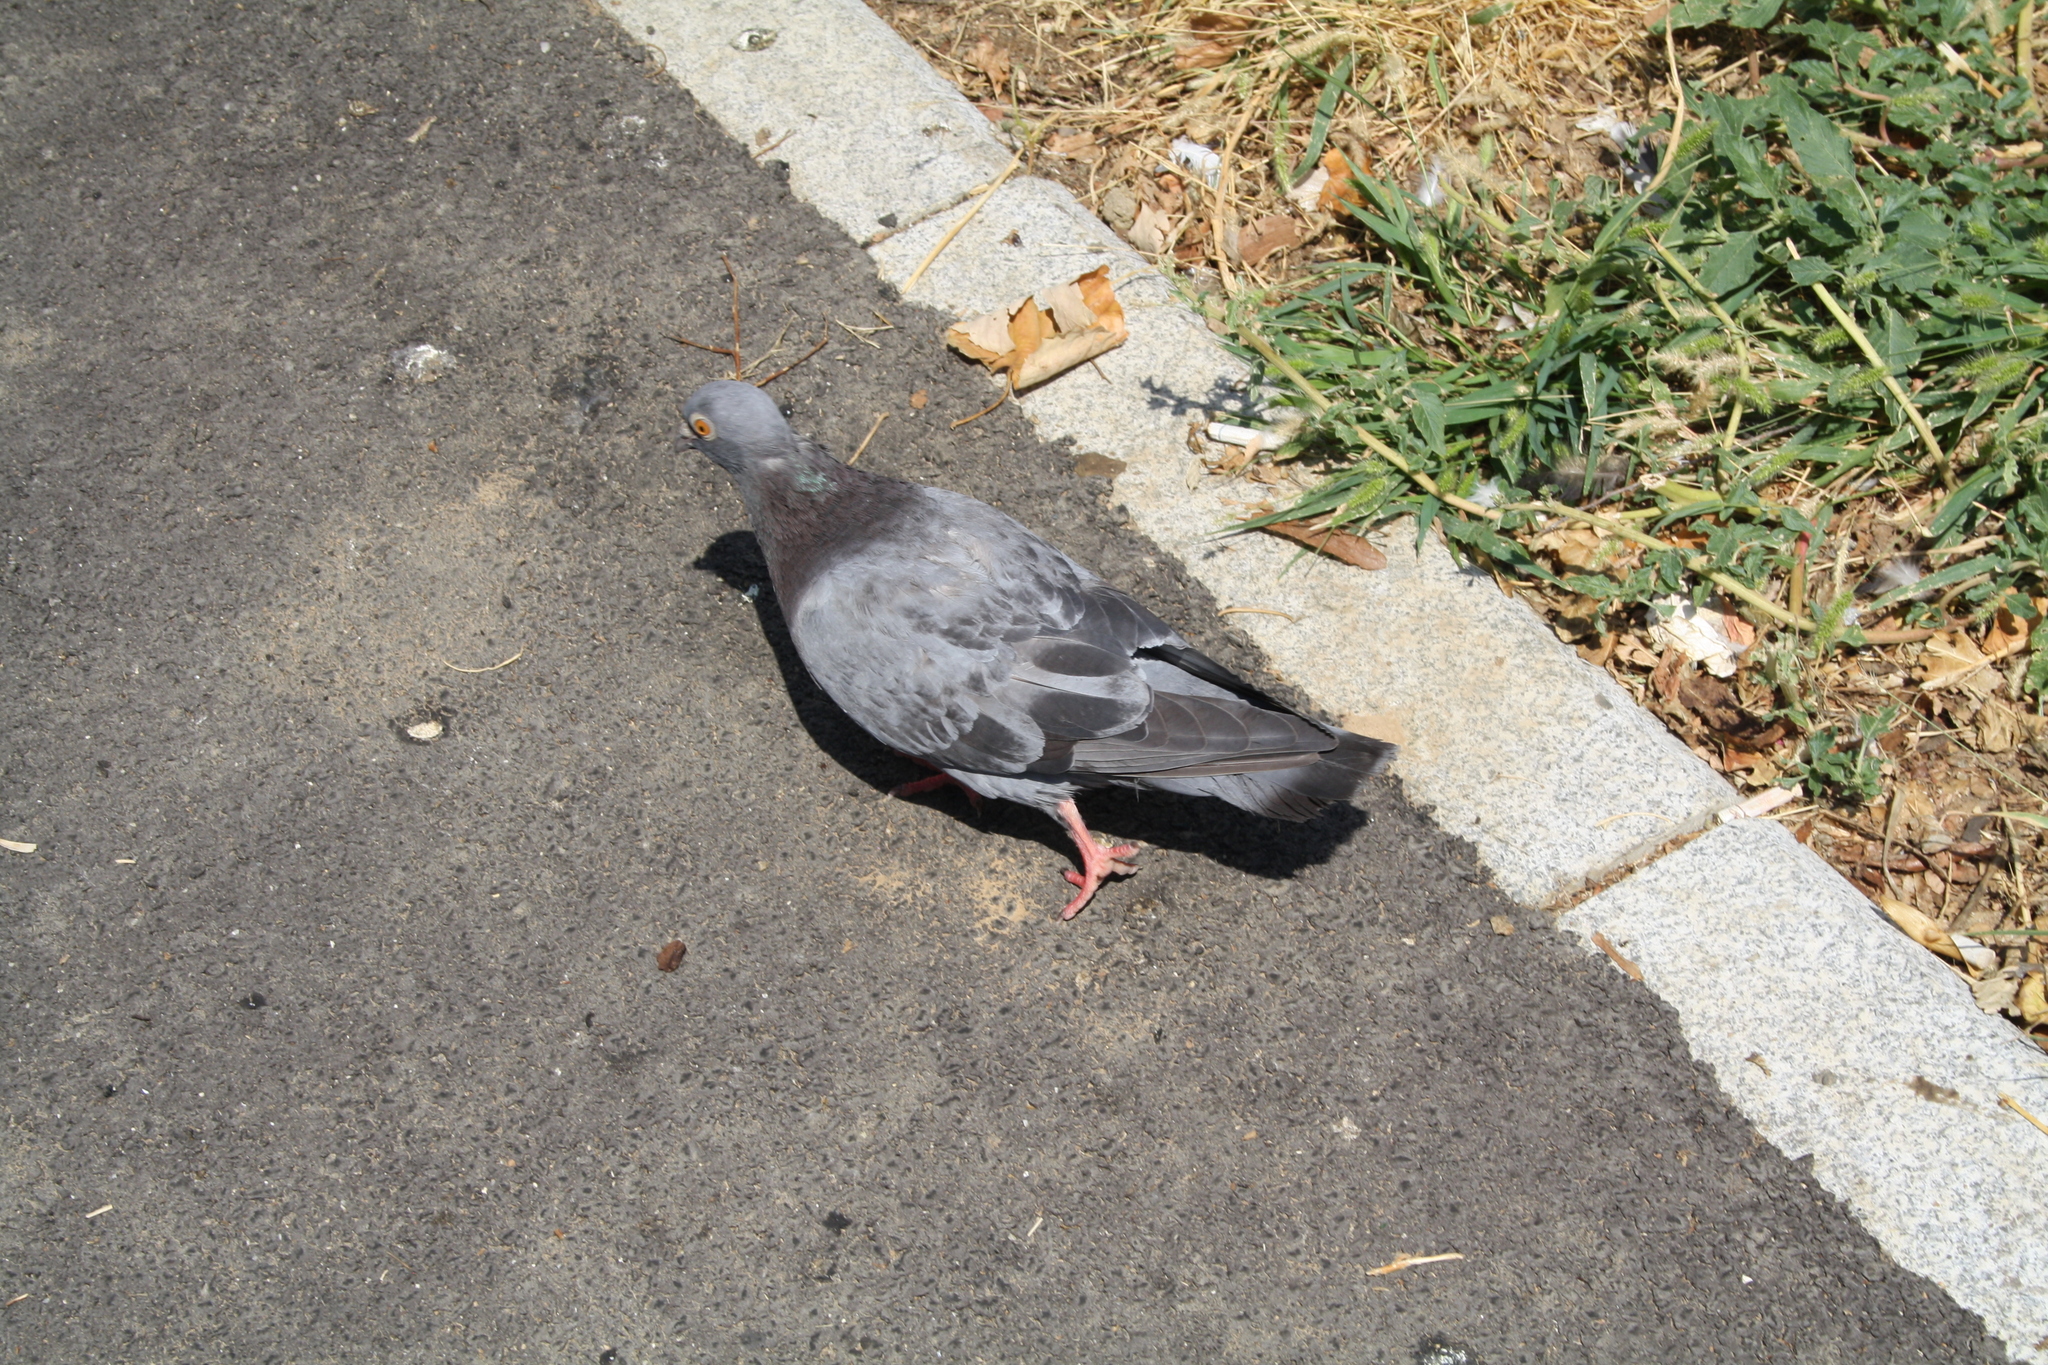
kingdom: Animalia
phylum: Chordata
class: Aves
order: Columbiformes
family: Columbidae
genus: Columba
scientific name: Columba livia
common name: Rock pigeon
